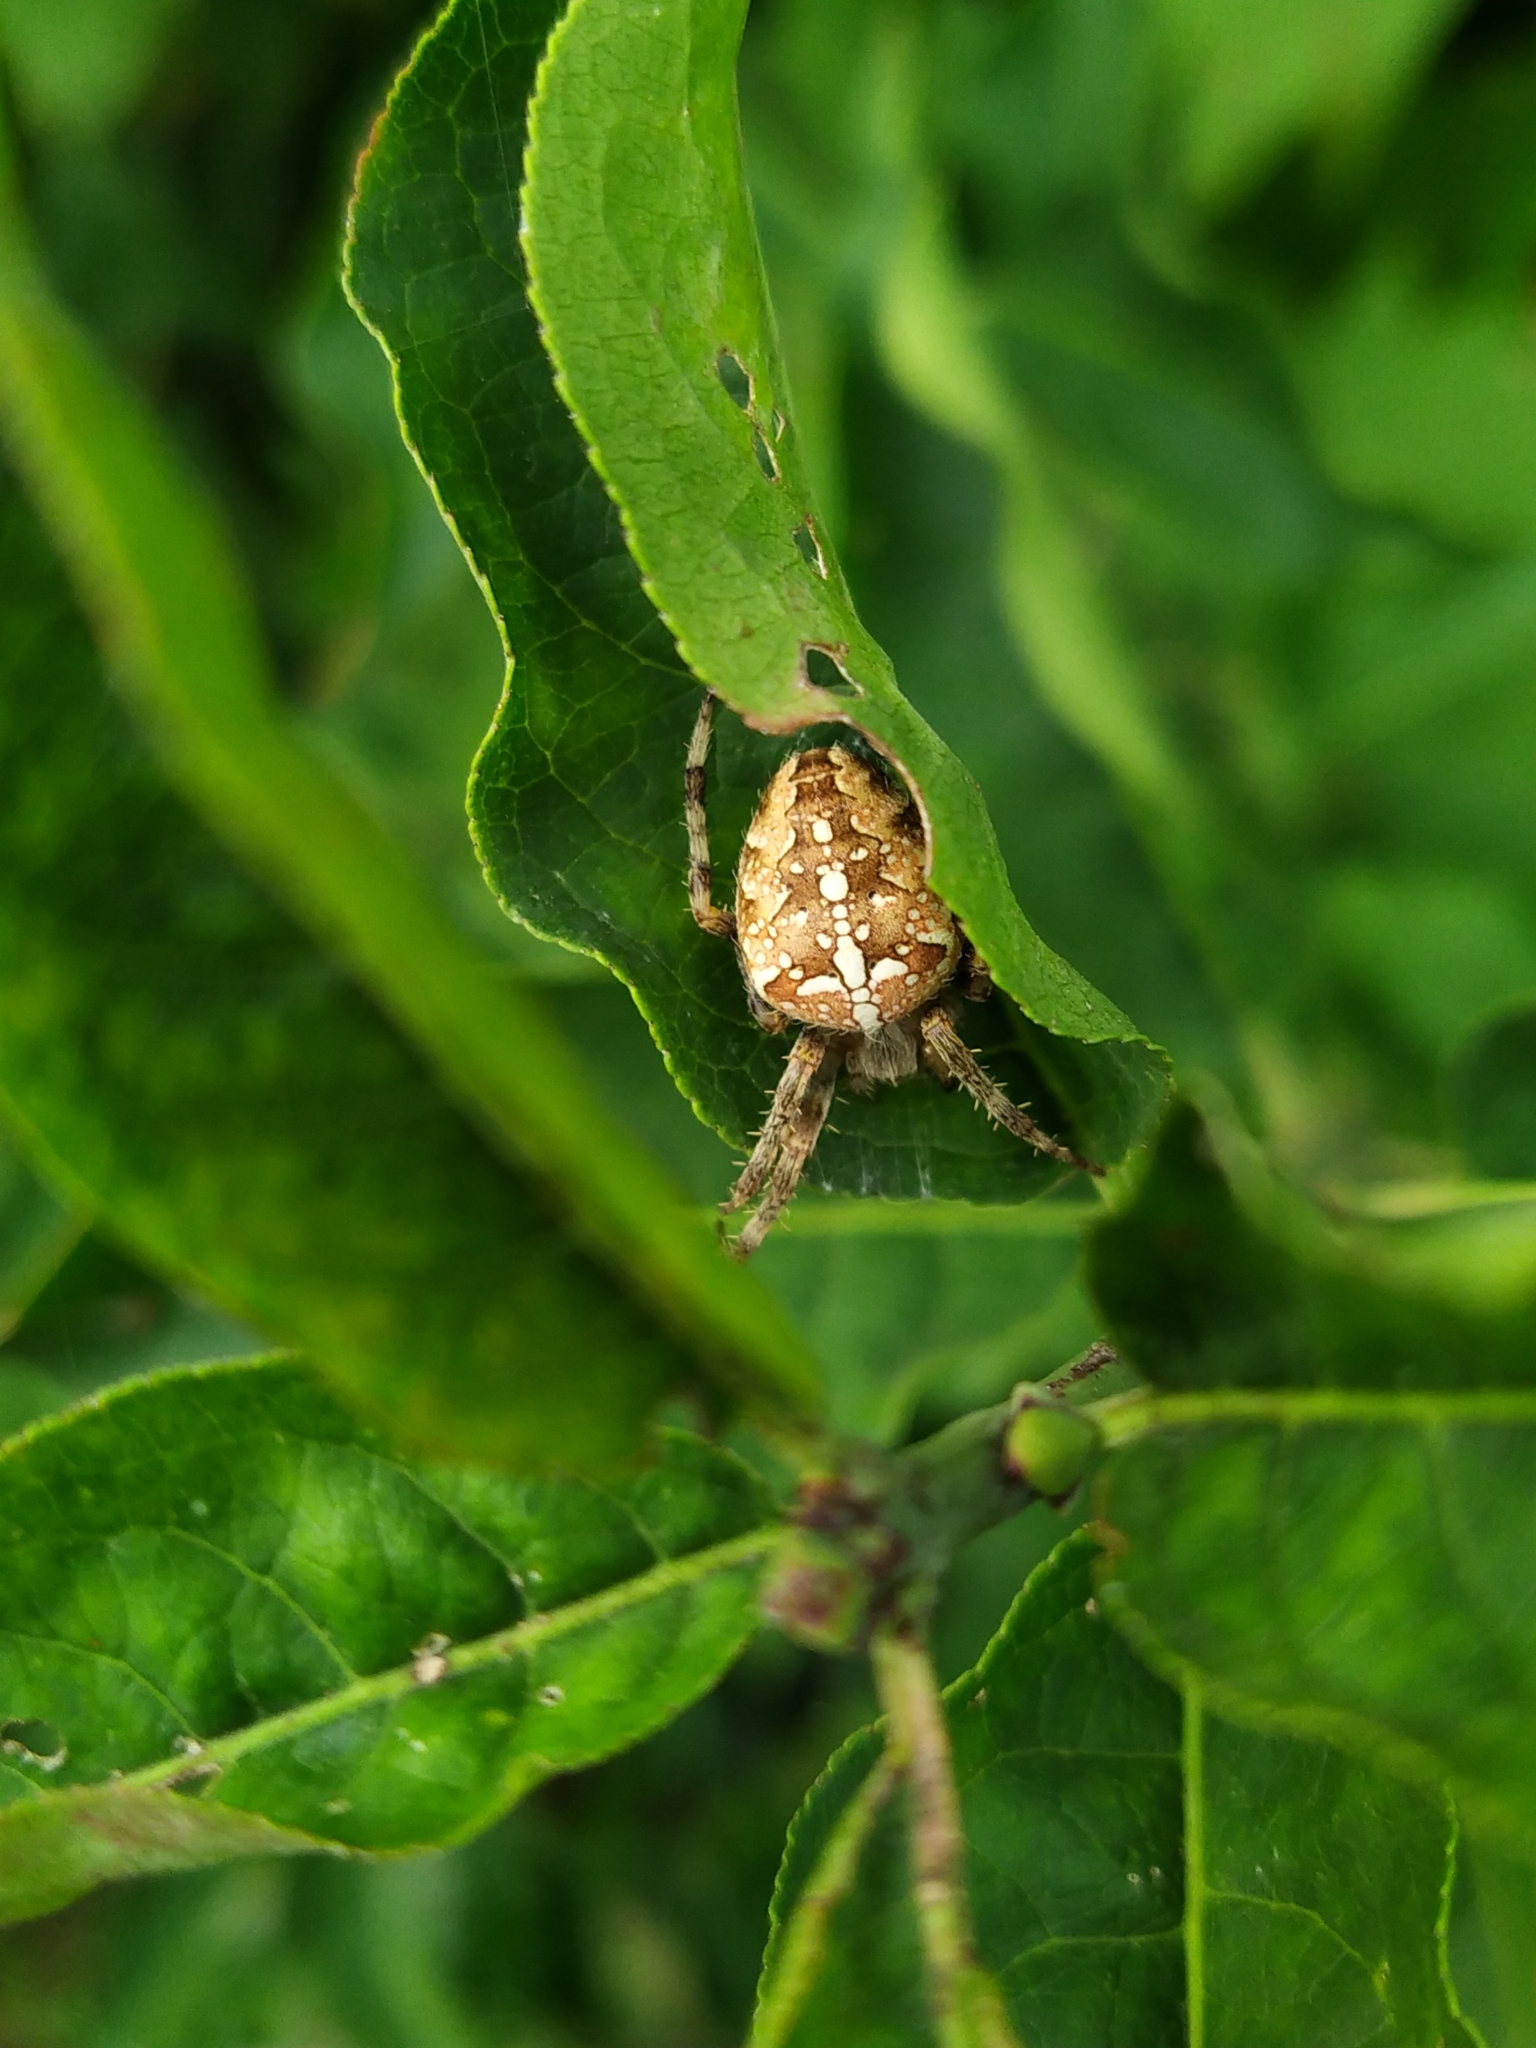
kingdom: Animalia
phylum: Arthropoda
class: Arachnida
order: Araneae
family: Araneidae
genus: Araneus
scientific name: Araneus diadematus
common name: Cross orbweaver
